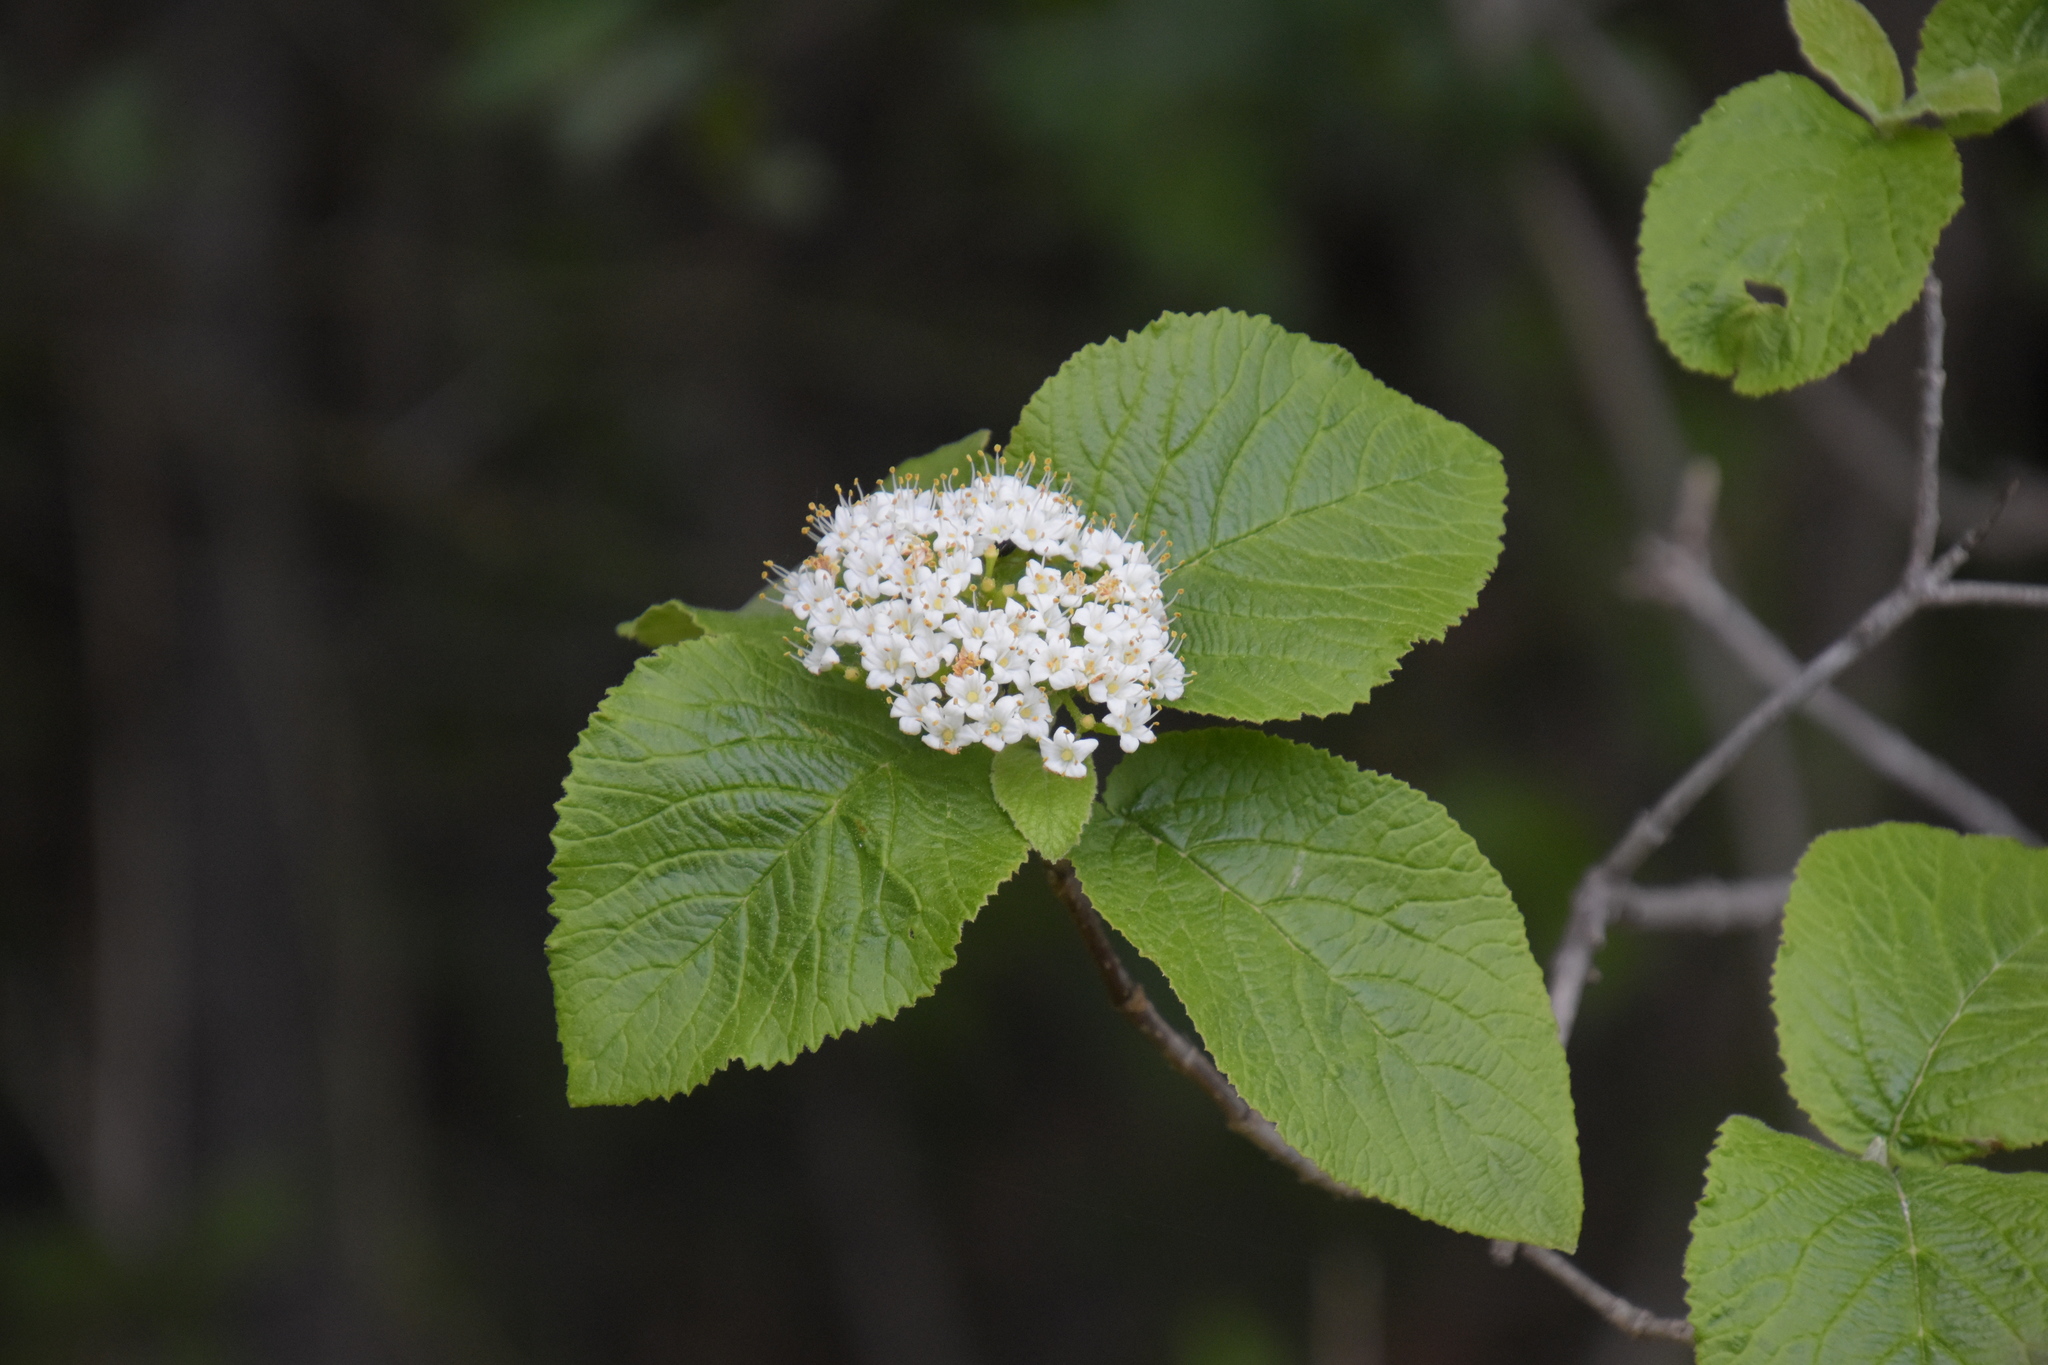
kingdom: Plantae
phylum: Tracheophyta
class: Magnoliopsida
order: Dipsacales
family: Viburnaceae
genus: Viburnum
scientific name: Viburnum lantana
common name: Wayfaring tree
